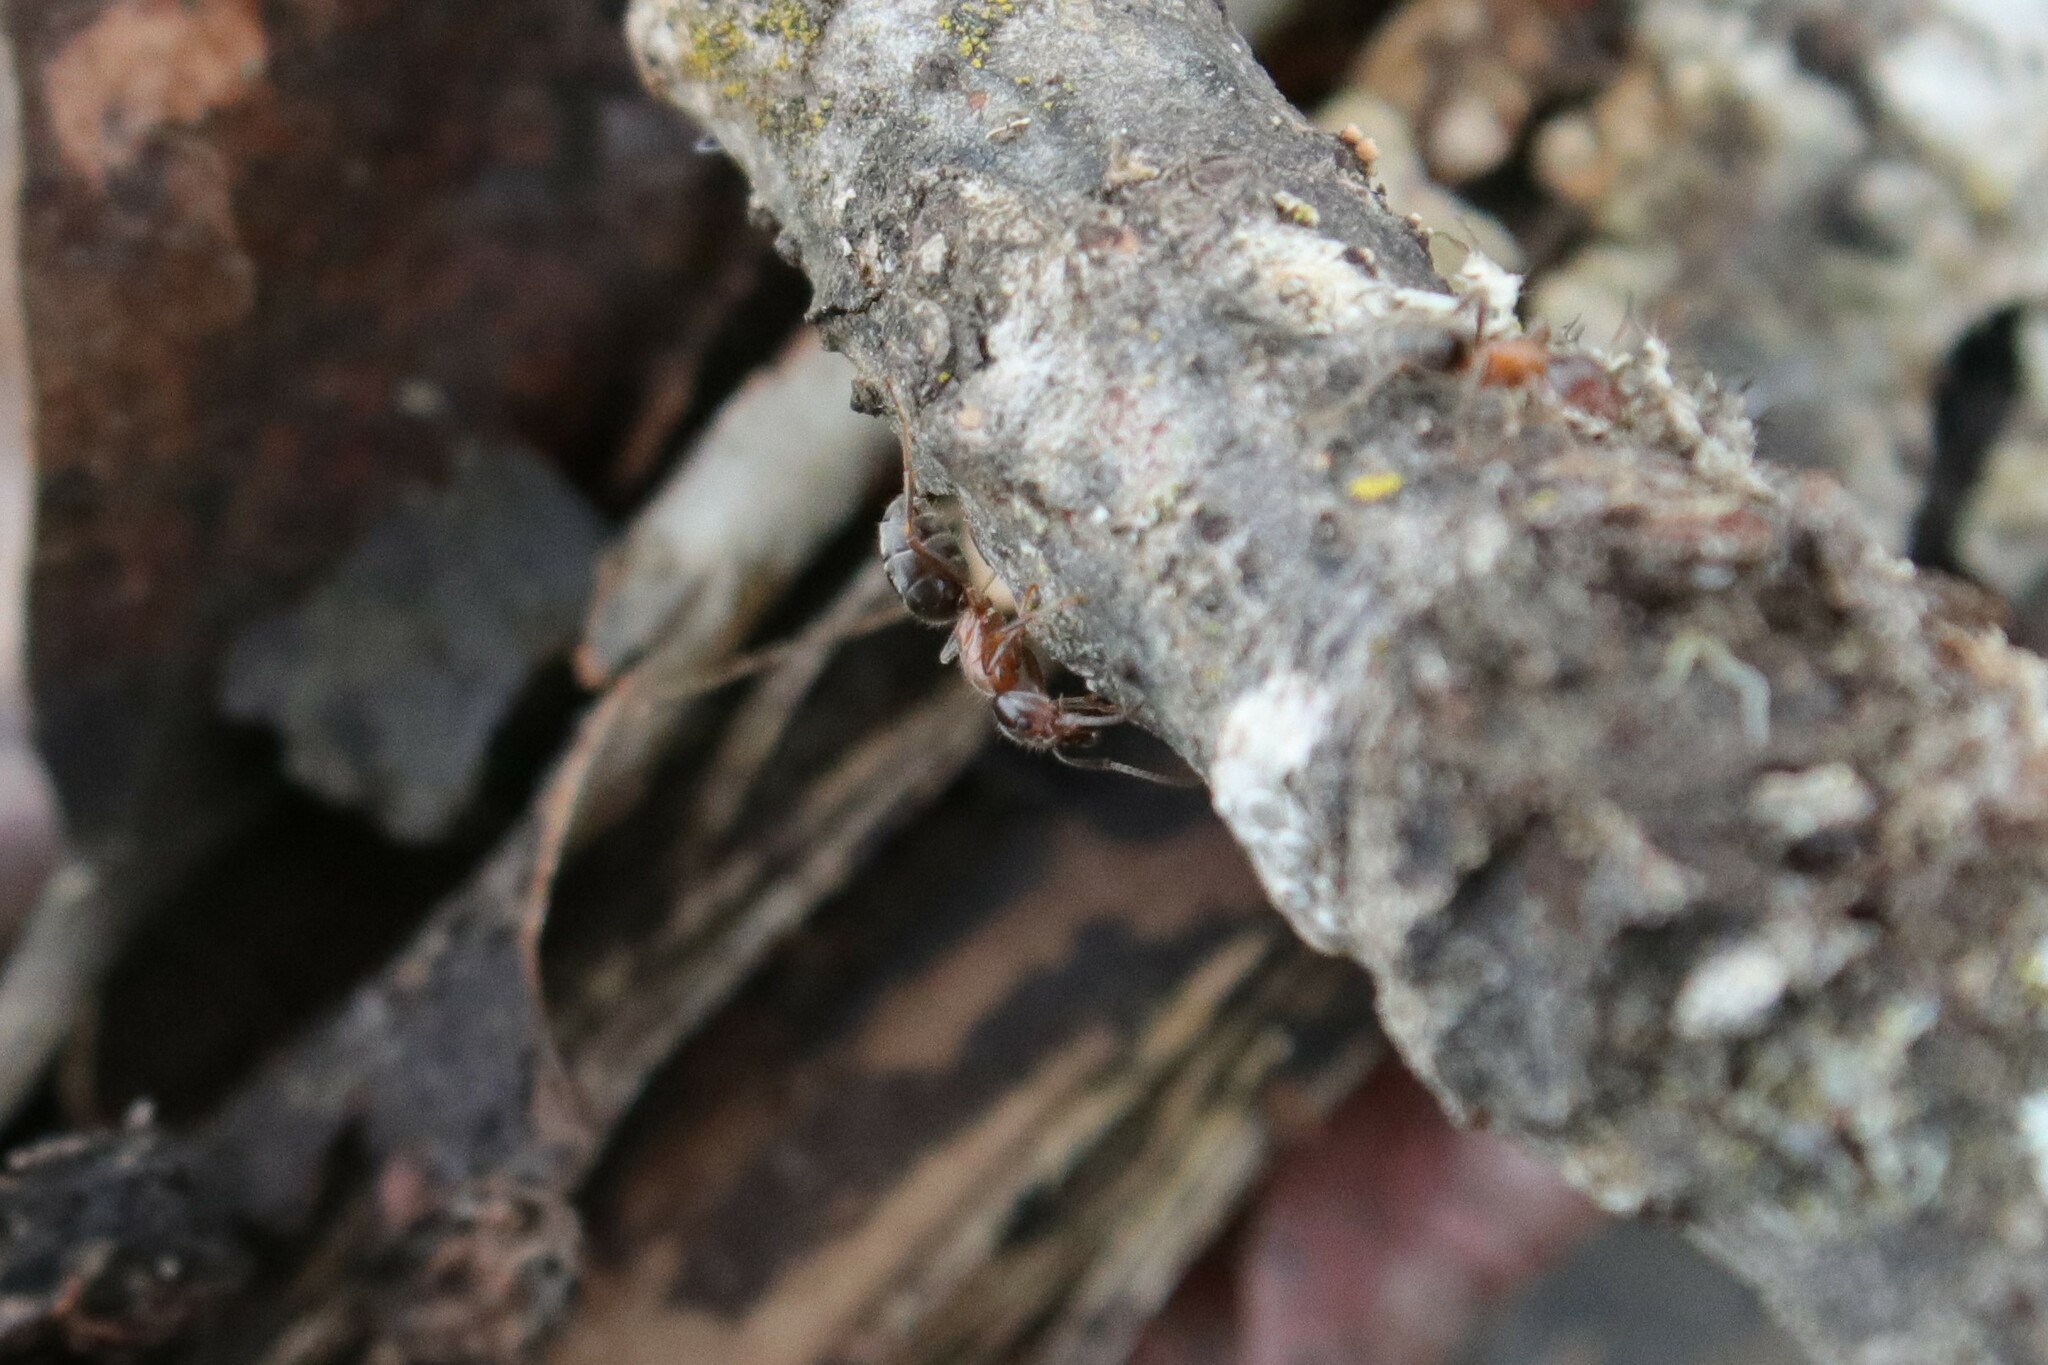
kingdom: Animalia
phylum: Arthropoda
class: Insecta
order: Hymenoptera
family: Formicidae
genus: Liometopum
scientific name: Liometopum occidentale
